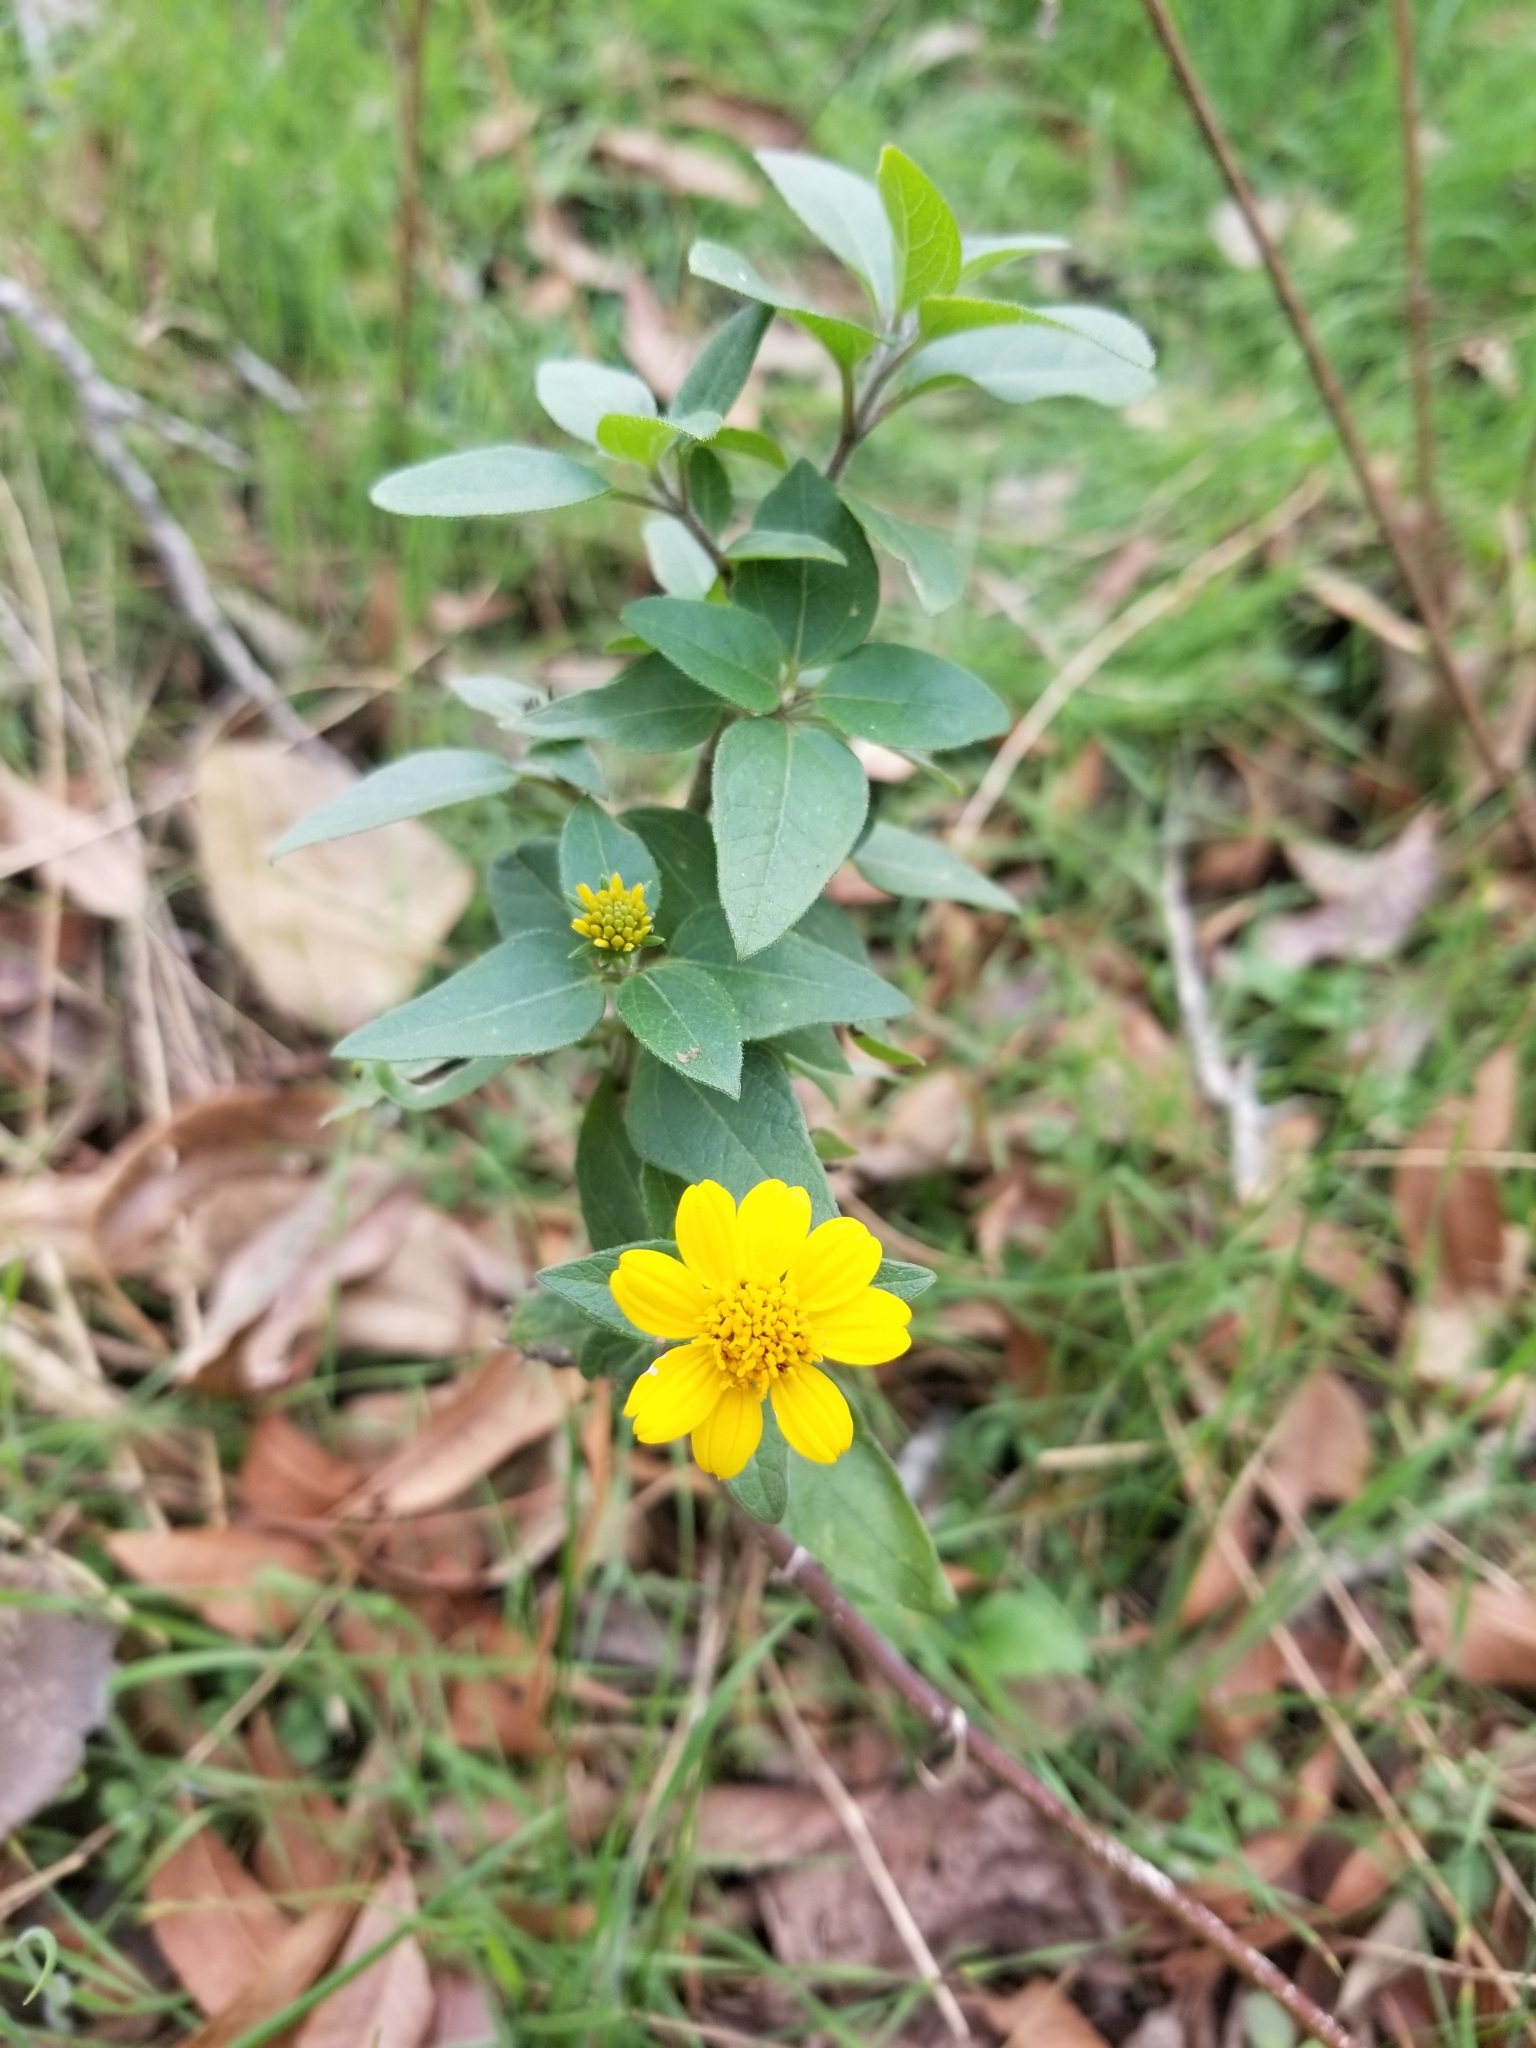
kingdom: Plantae
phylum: Tracheophyta
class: Magnoliopsida
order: Asterales
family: Asteraceae
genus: Viguiera
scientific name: Viguiera dentata
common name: Toothleaf
